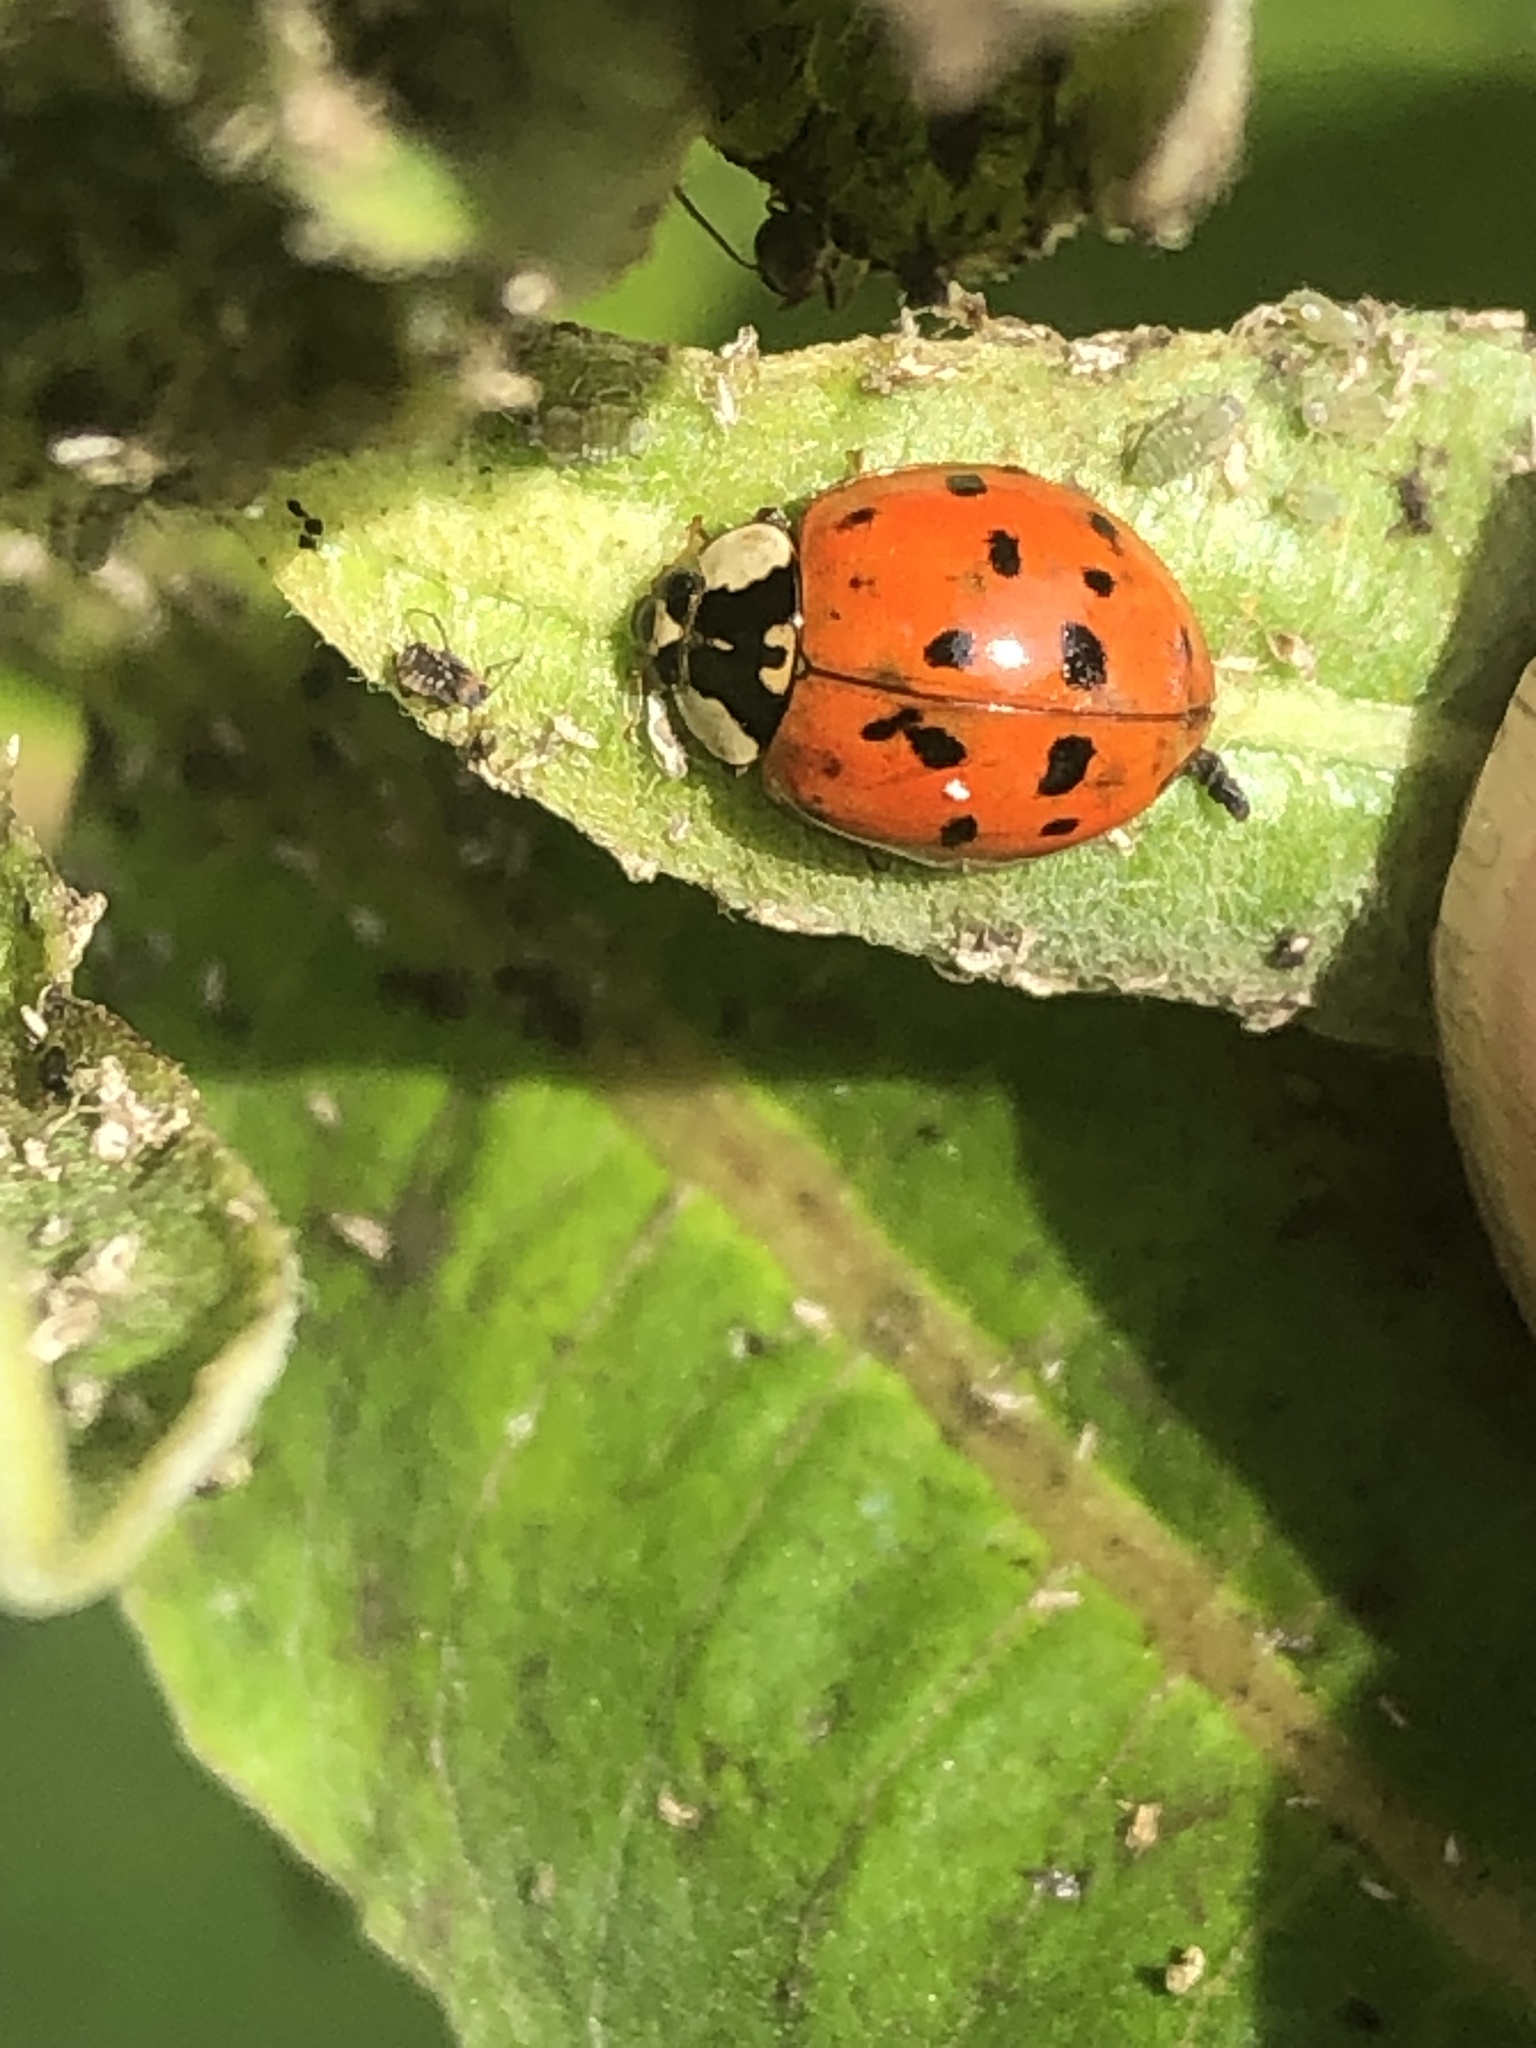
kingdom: Animalia
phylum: Arthropoda
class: Insecta
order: Coleoptera
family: Coccinellidae
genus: Harmonia
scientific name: Harmonia axyridis
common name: Harlequin ladybird
